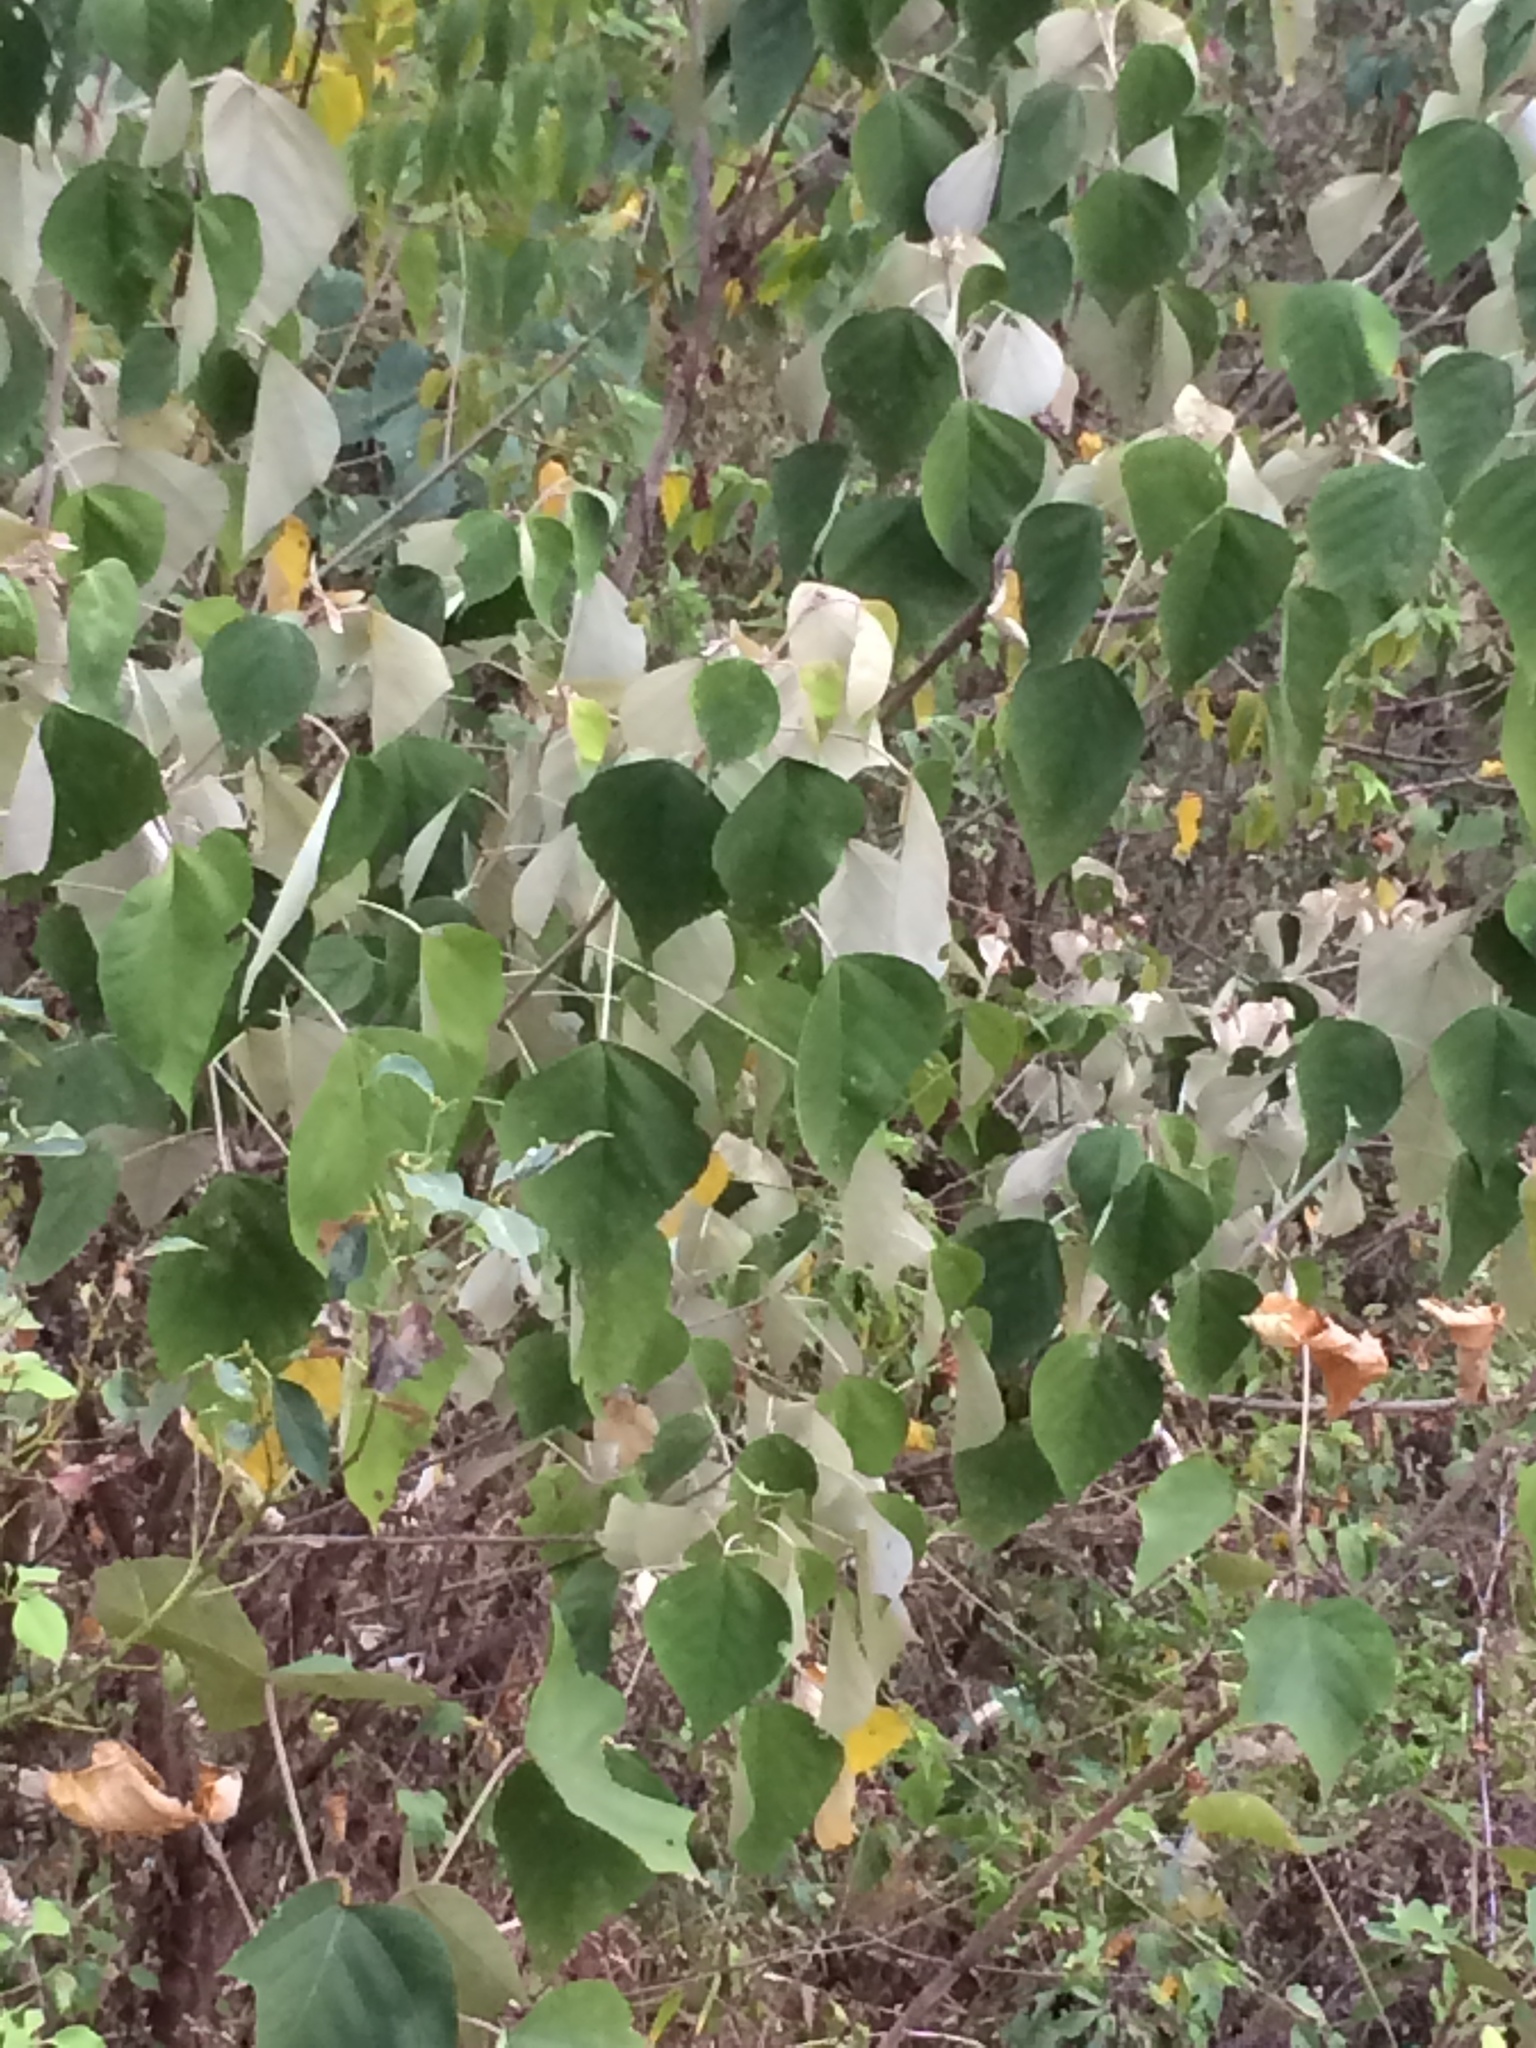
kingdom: Plantae
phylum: Tracheophyta
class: Magnoliopsida
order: Malpighiales
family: Euphorbiaceae
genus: Mallotus
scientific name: Mallotus paniculatus
